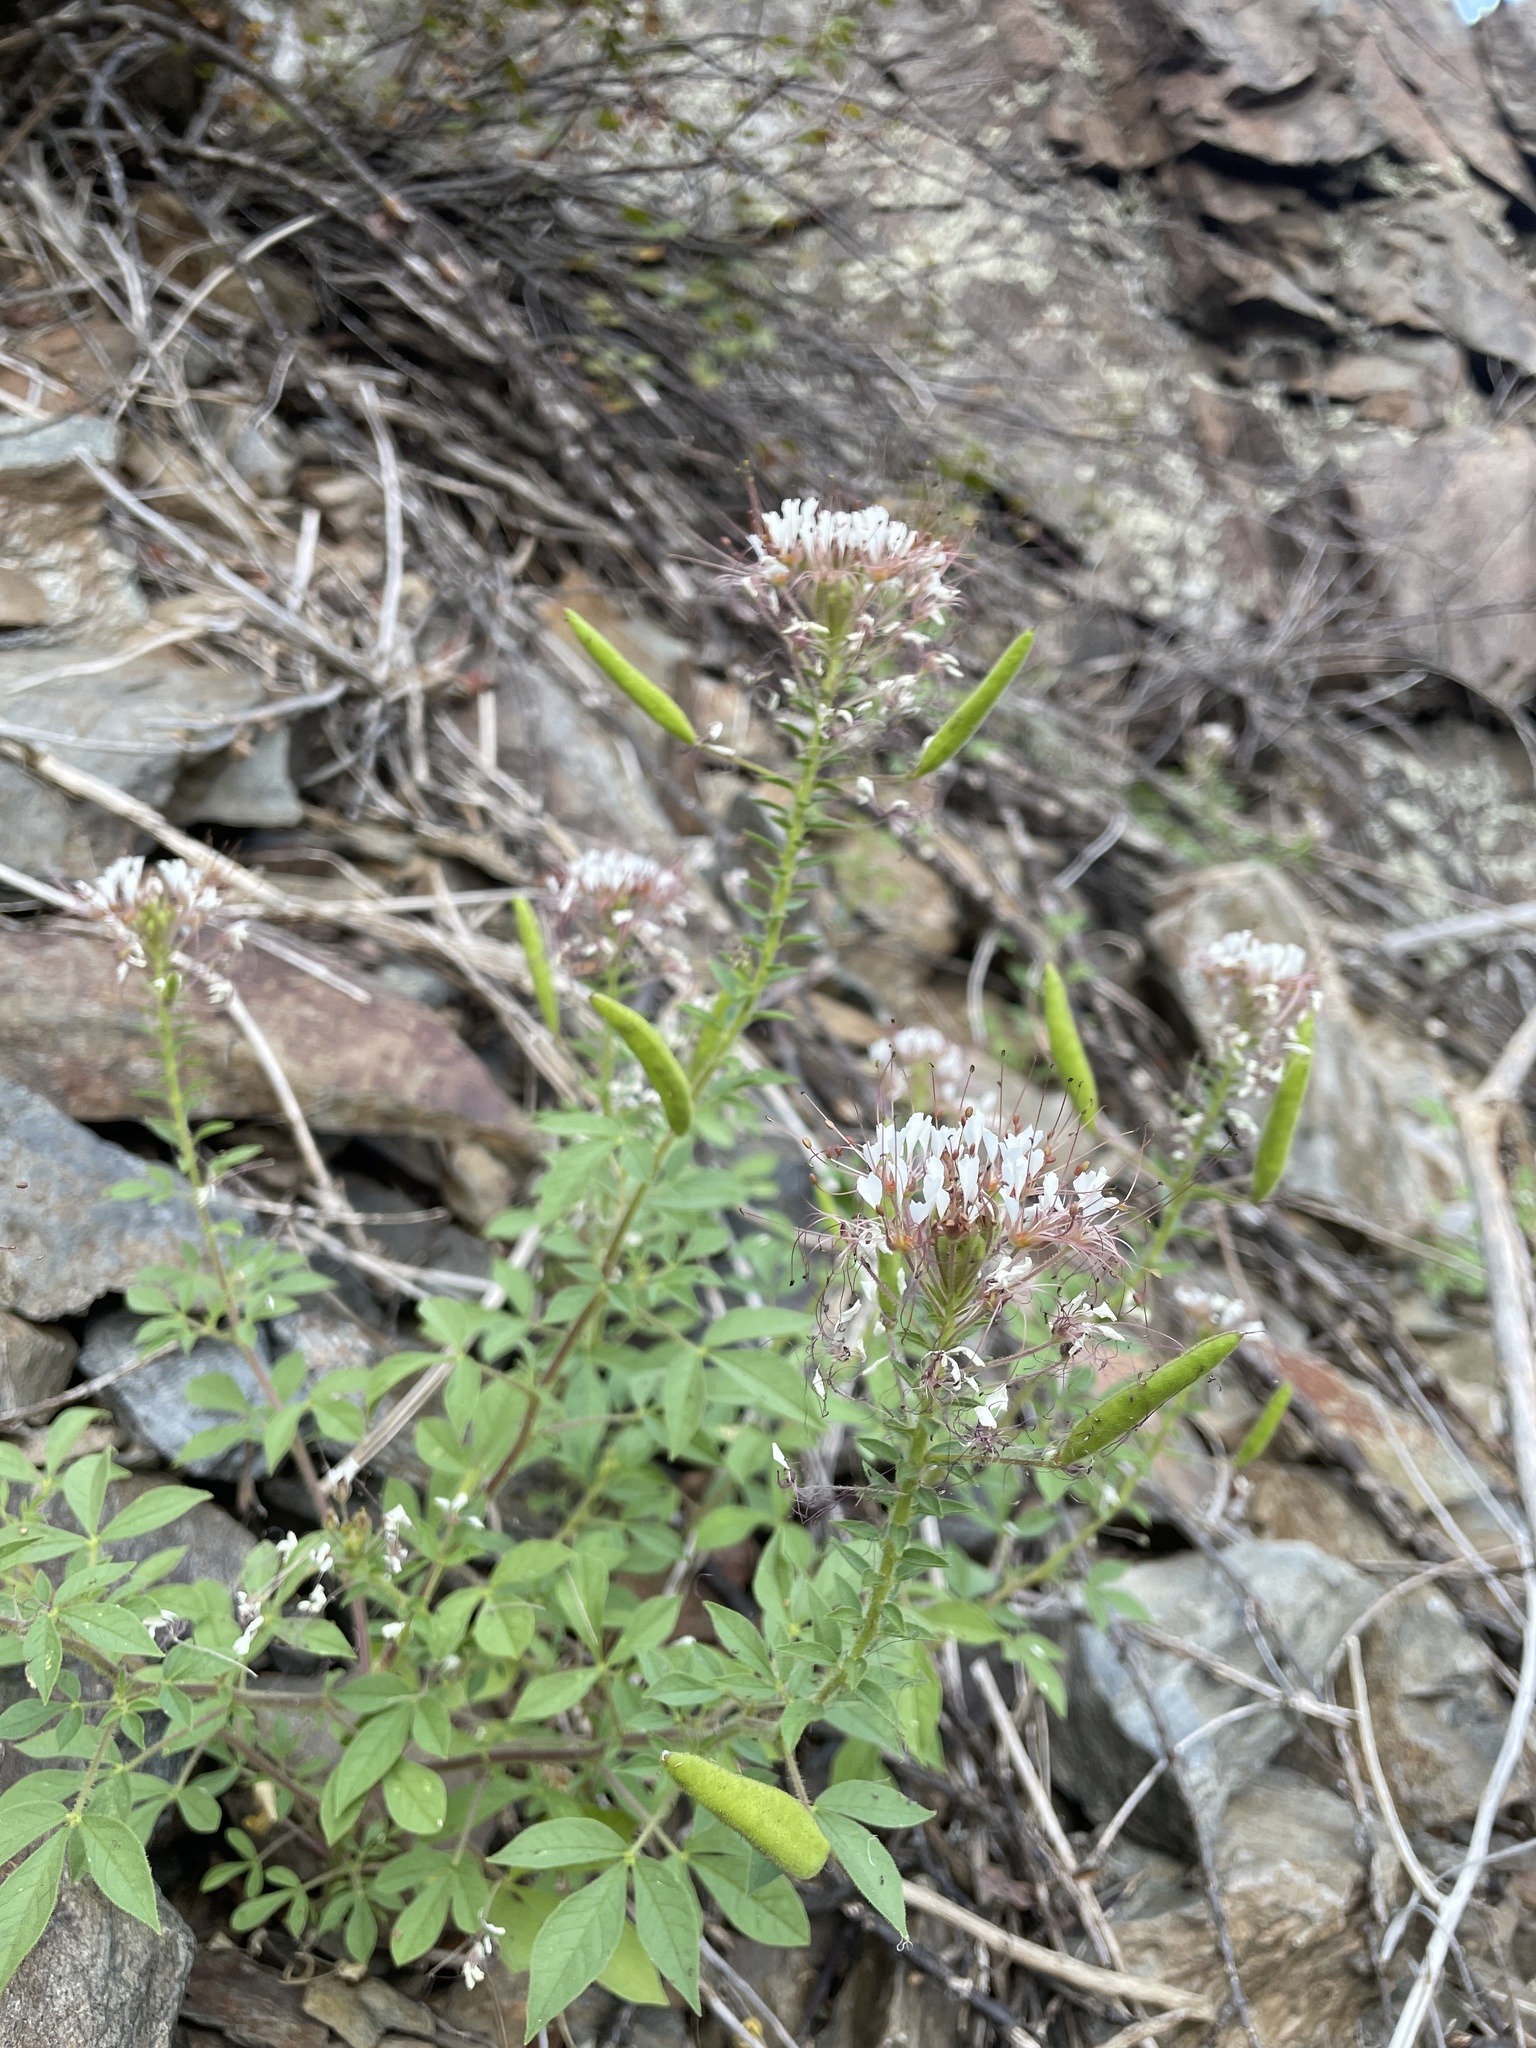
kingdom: Plantae
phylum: Tracheophyta
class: Magnoliopsida
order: Brassicales
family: Cleomaceae
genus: Polanisia
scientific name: Polanisia dodecandra
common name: Clammyweed
